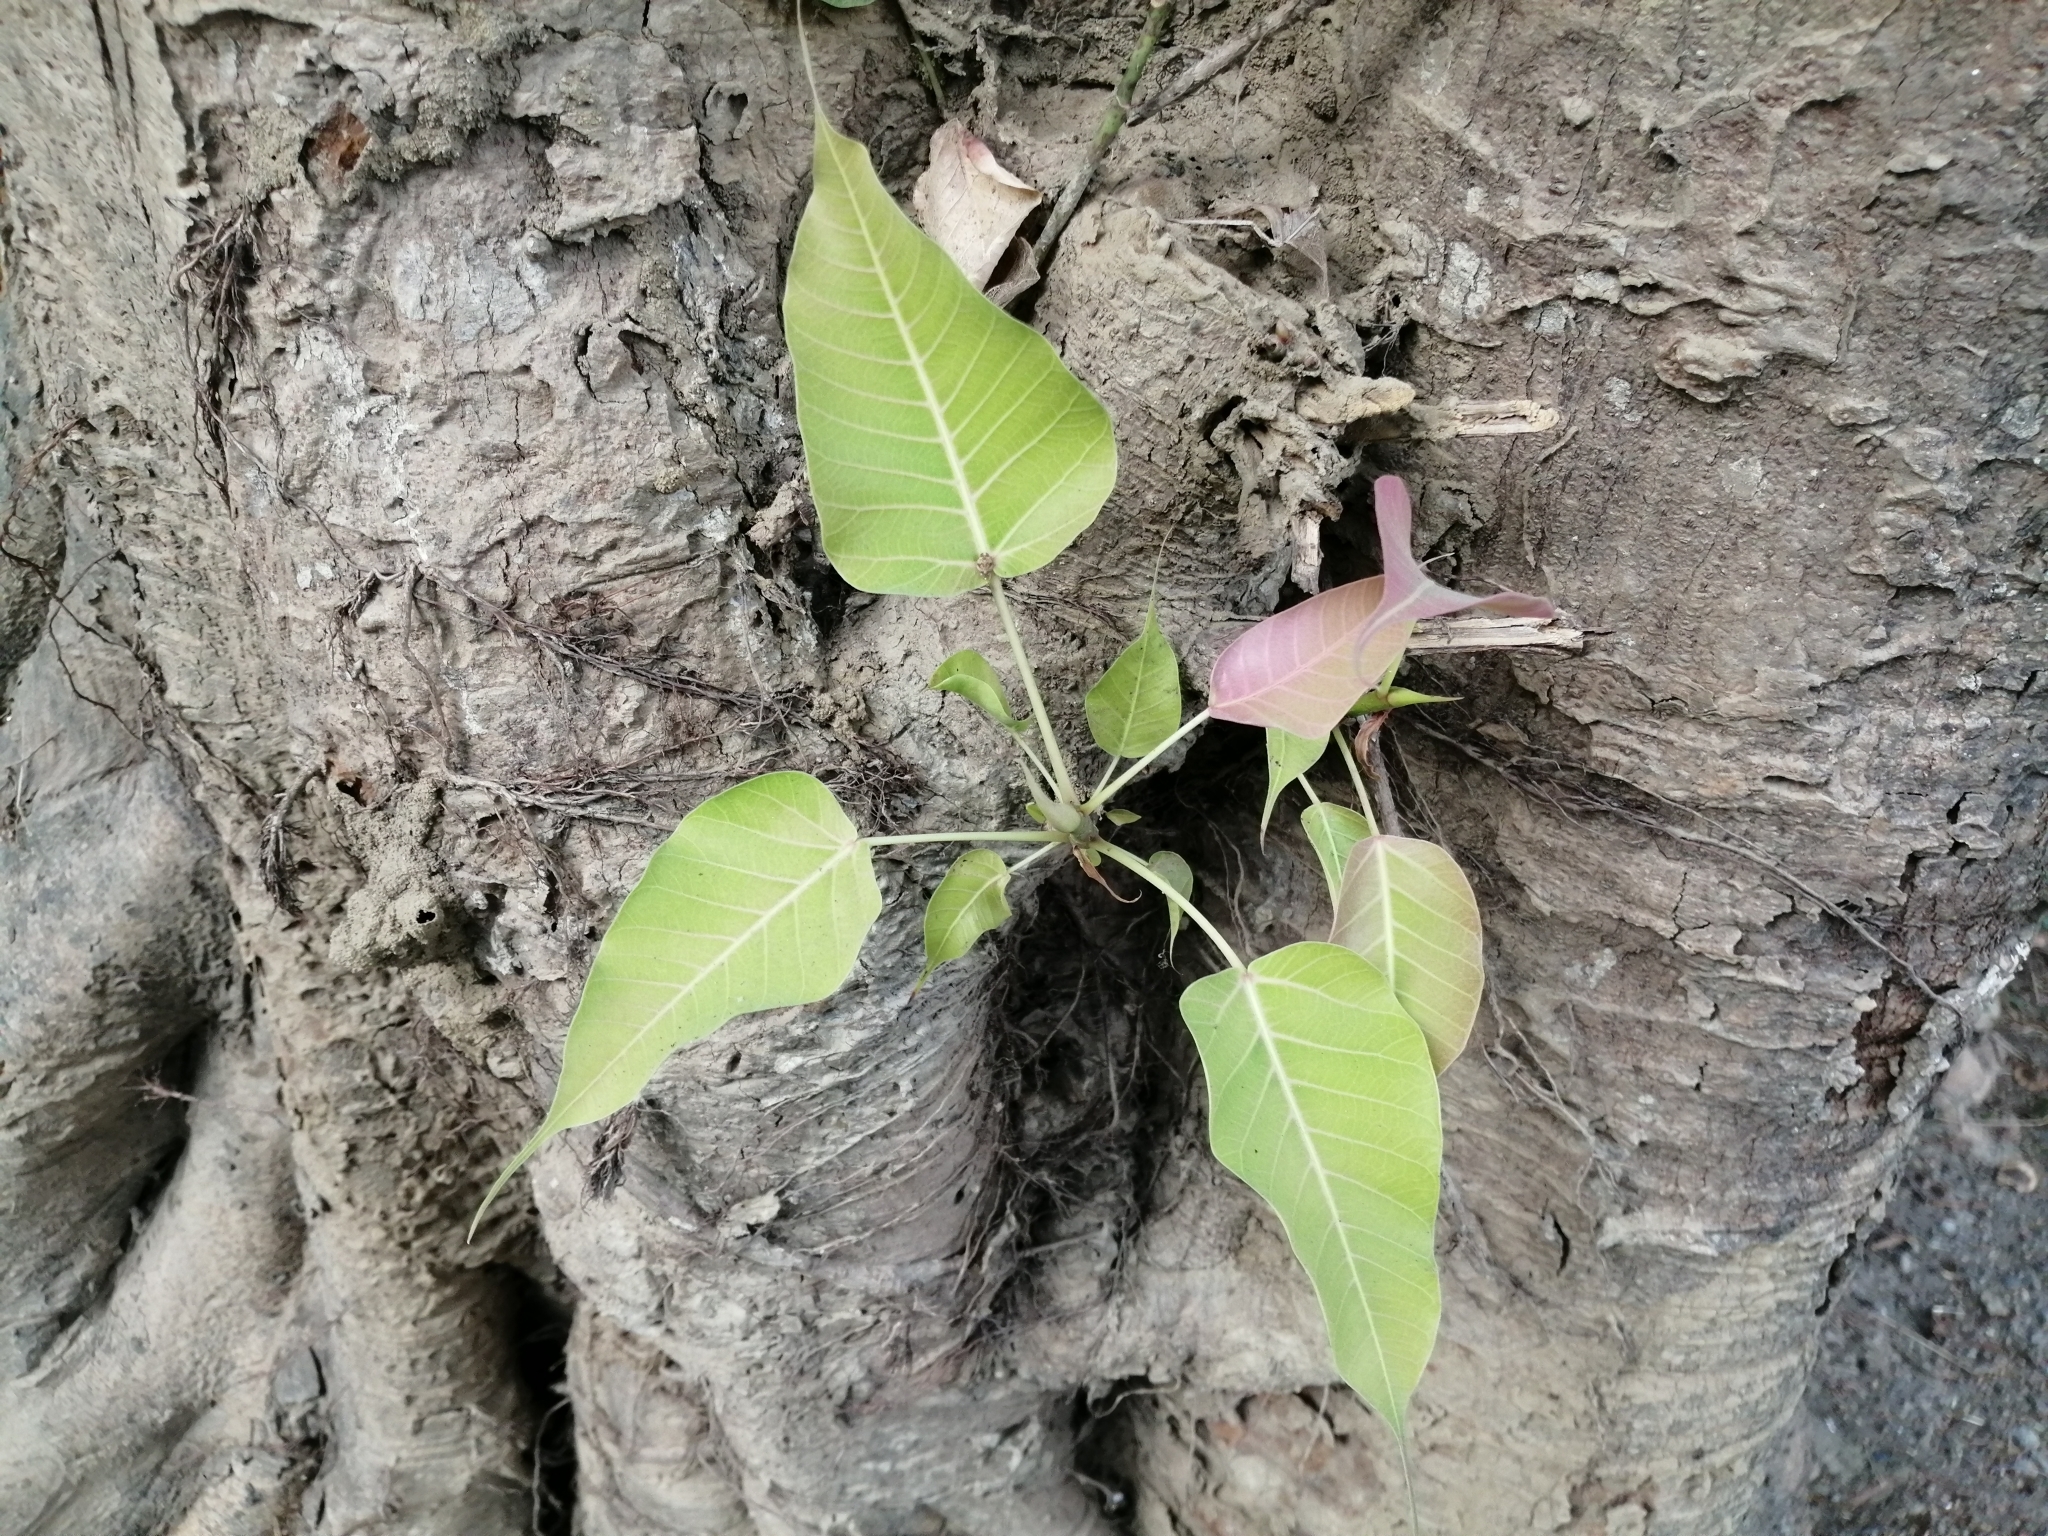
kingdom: Plantae
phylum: Tracheophyta
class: Magnoliopsida
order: Rosales
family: Moraceae
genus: Ficus
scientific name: Ficus religiosa
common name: Bodhi tree
